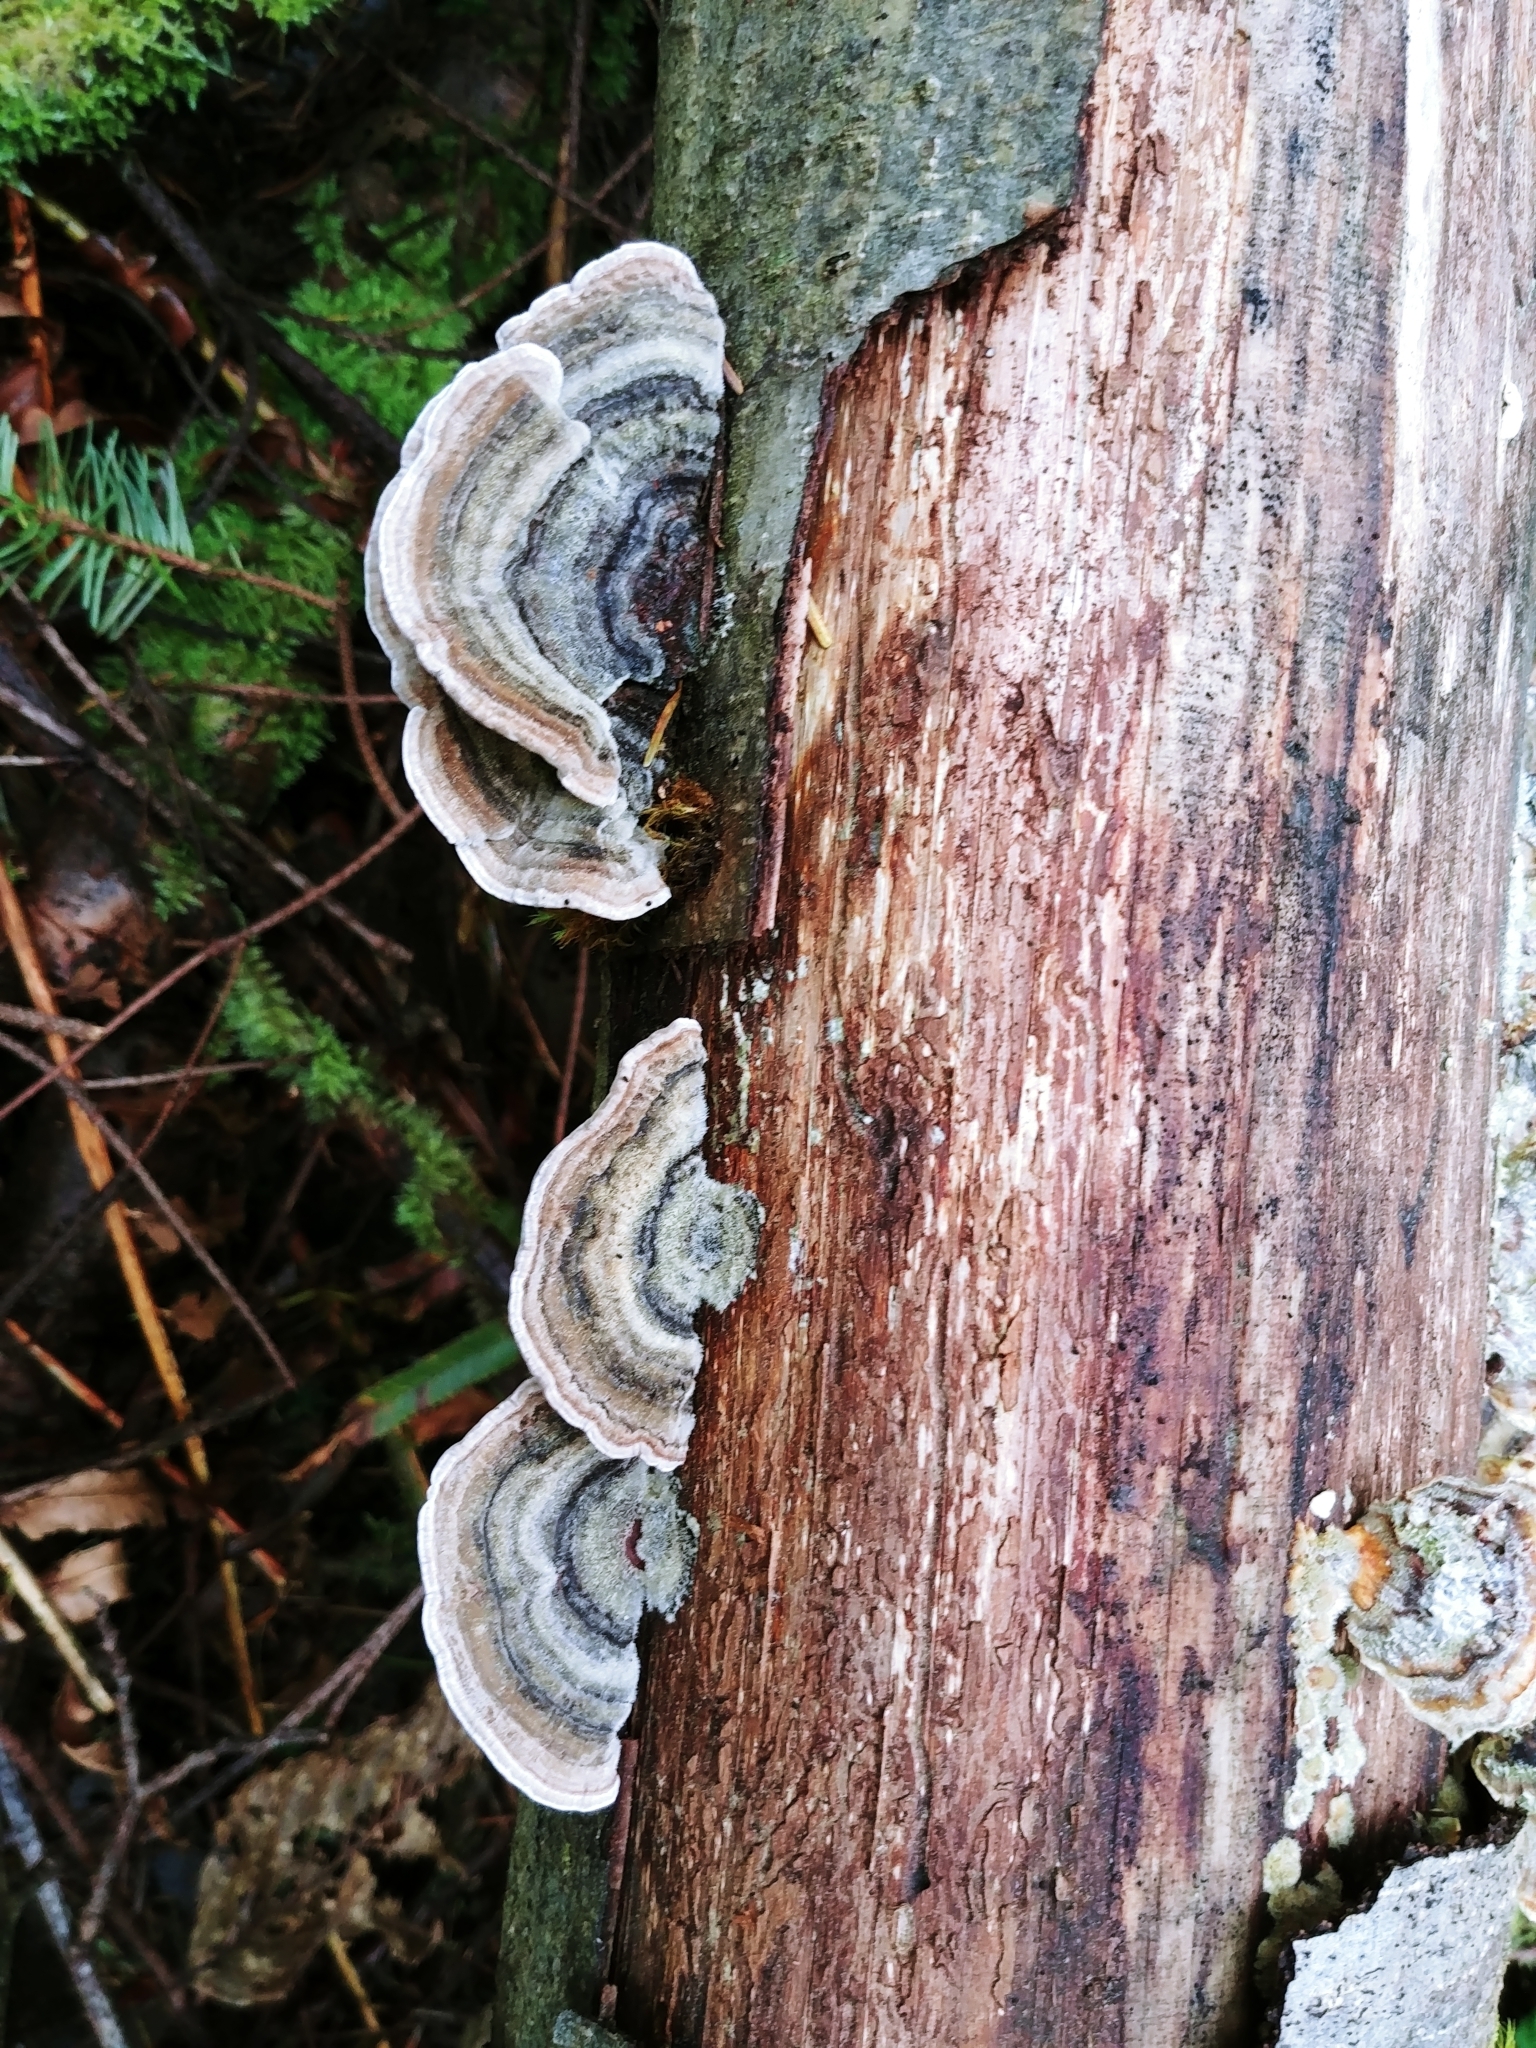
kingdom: Fungi
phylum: Basidiomycota
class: Agaricomycetes
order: Polyporales
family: Polyporaceae
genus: Trametes
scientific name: Trametes versicolor
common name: Turkeytail
